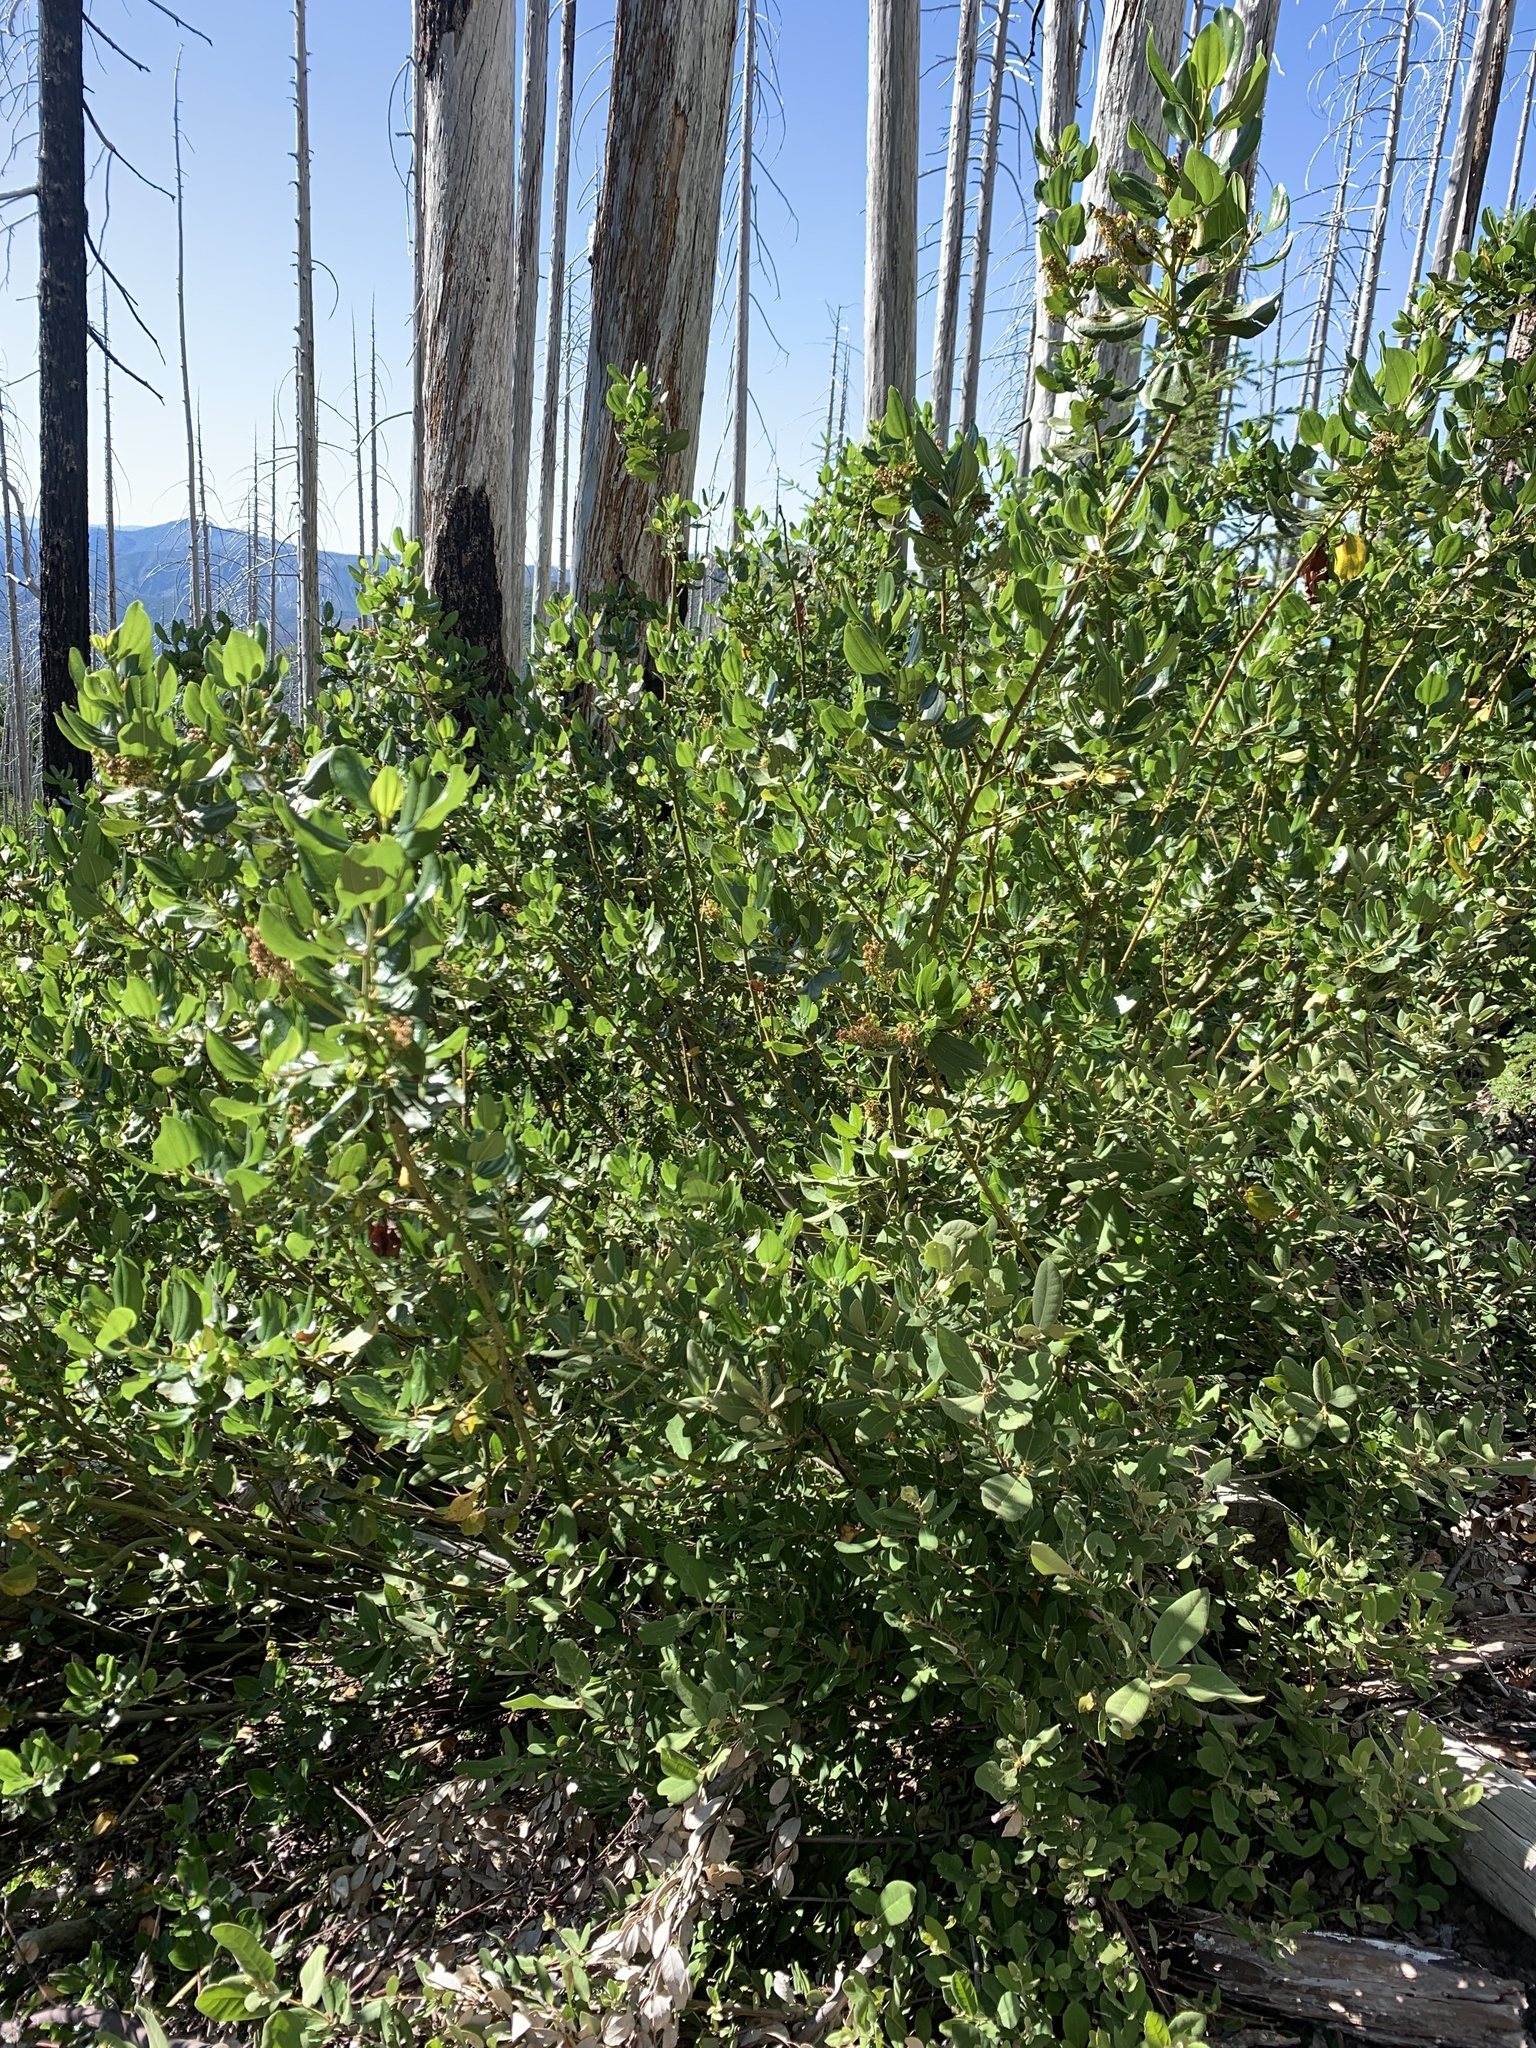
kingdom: Plantae
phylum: Tracheophyta
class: Magnoliopsida
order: Rosales
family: Rhamnaceae
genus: Ceanothus
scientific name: Ceanothus velutinus
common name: Snowbrush
